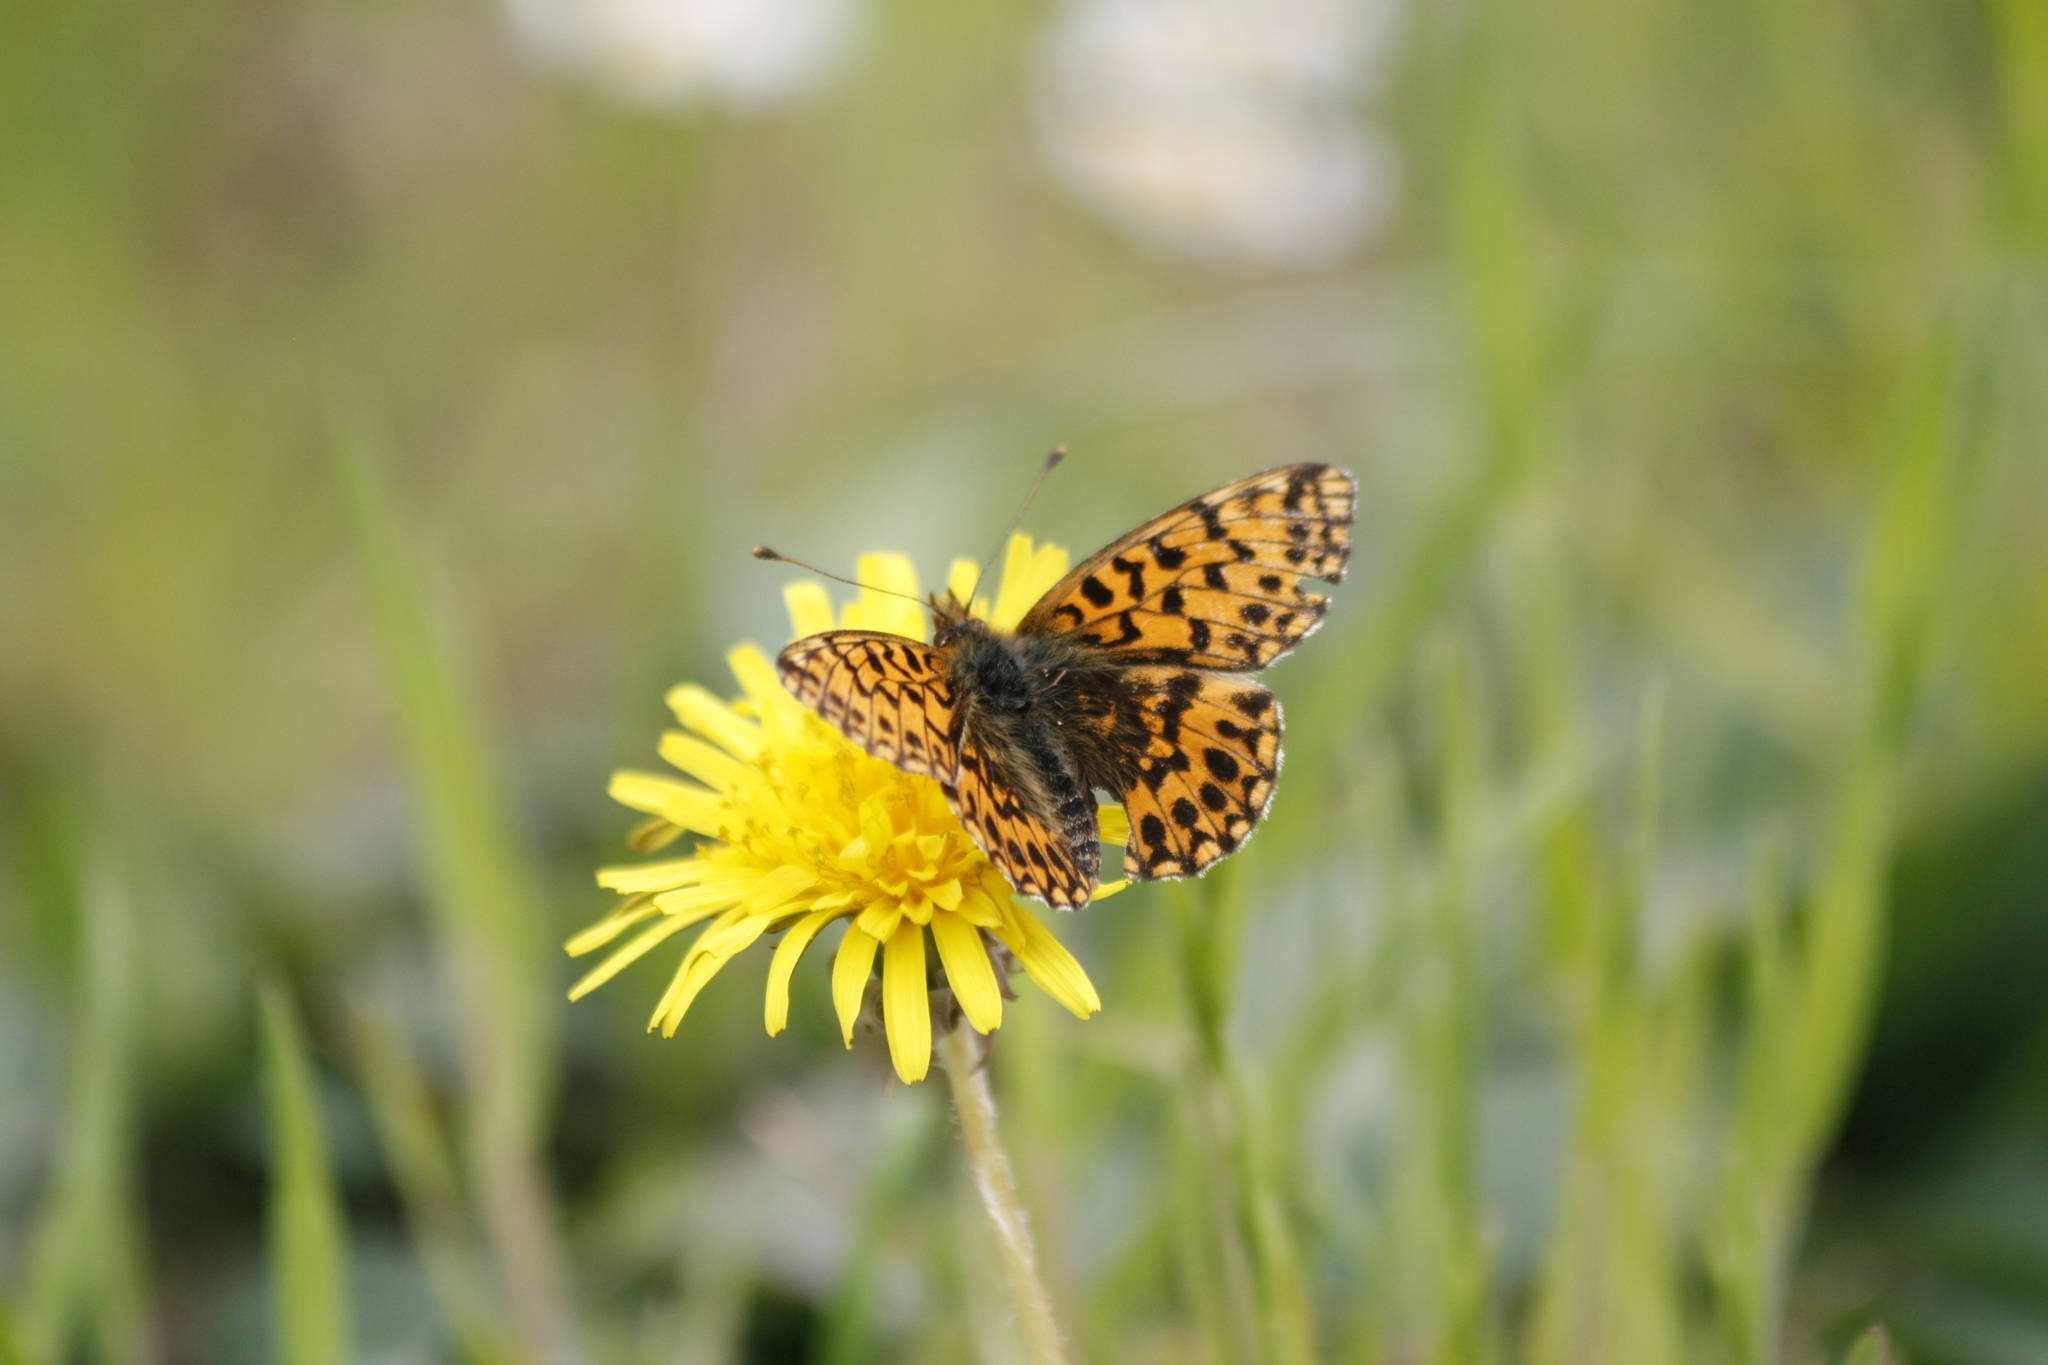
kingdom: Animalia
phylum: Arthropoda
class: Insecta
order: Lepidoptera
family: Nymphalidae
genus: Boloria
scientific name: Boloria dia
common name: Weaver's fritillary
